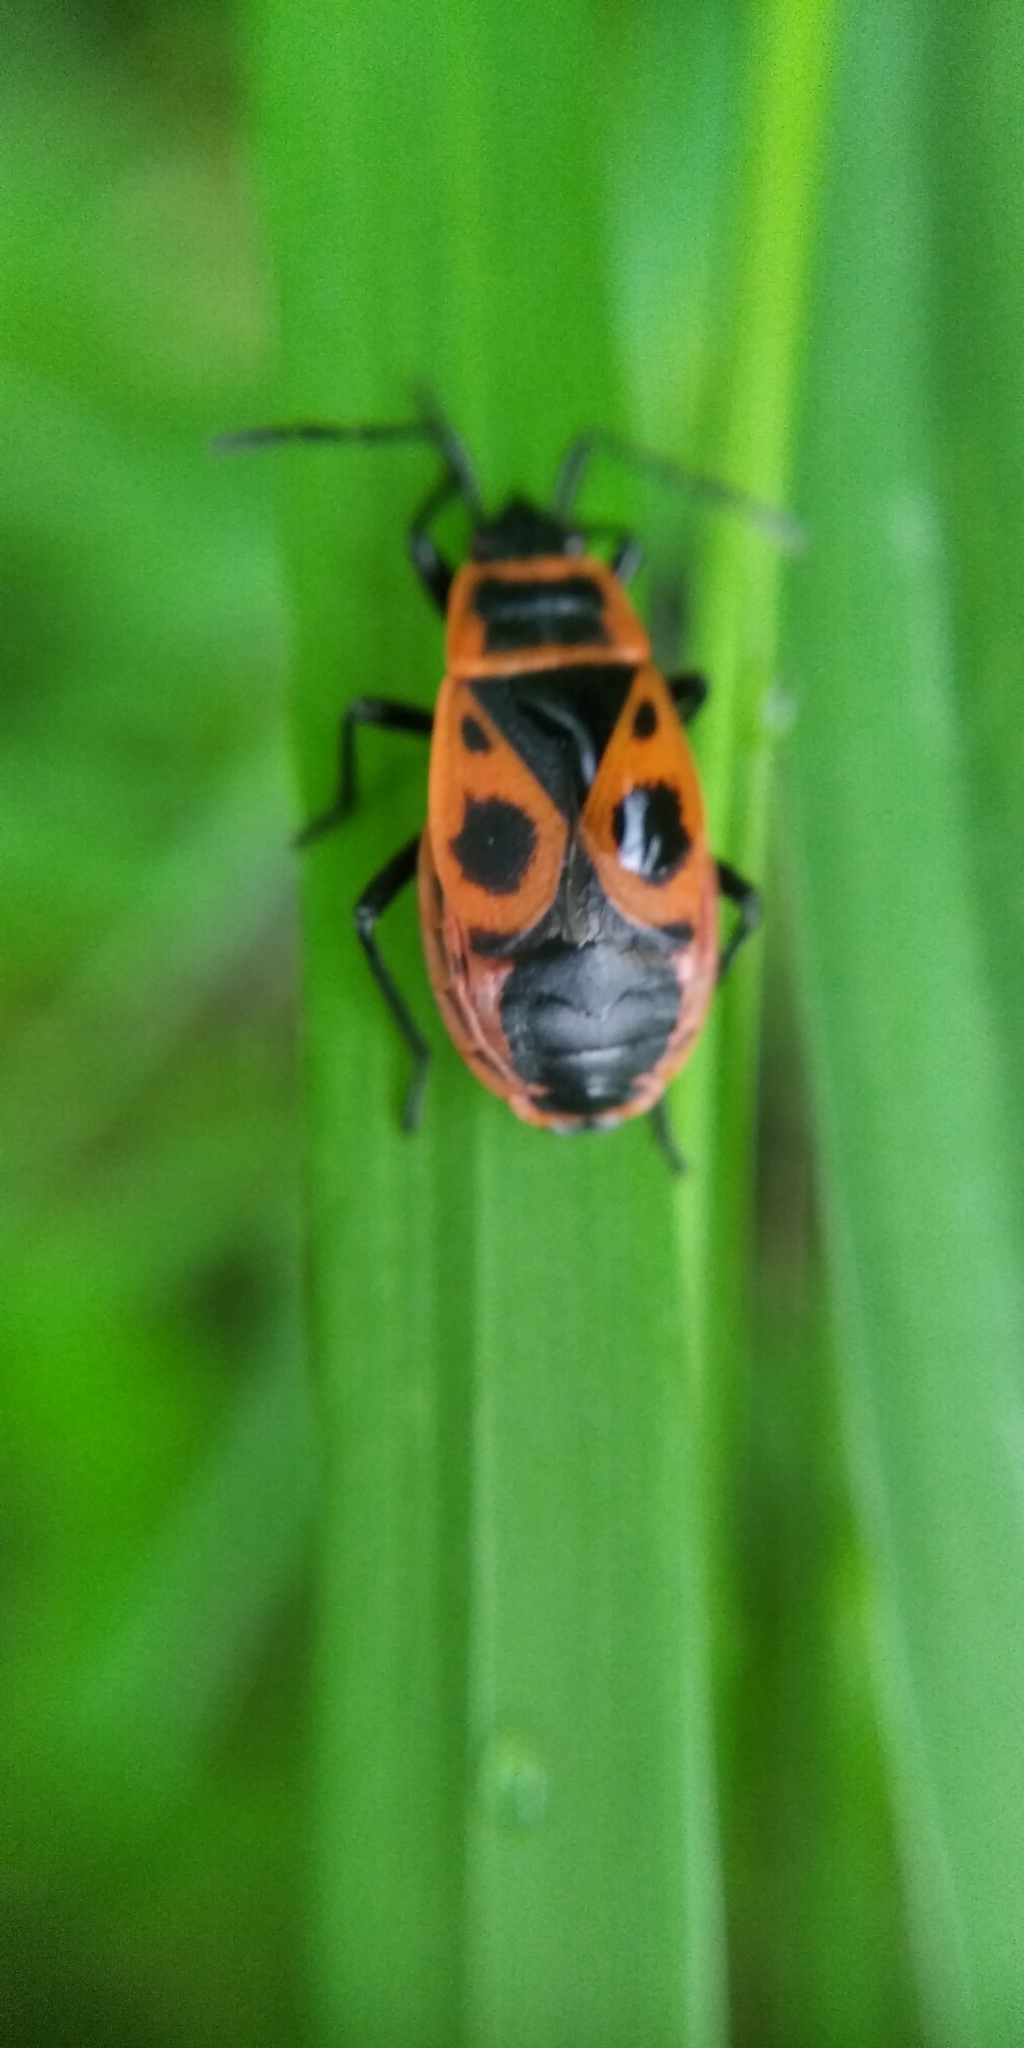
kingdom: Animalia
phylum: Arthropoda
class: Insecta
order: Hemiptera
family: Pyrrhocoridae
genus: Pyrrhocoris
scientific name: Pyrrhocoris apterus
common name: Firebug
